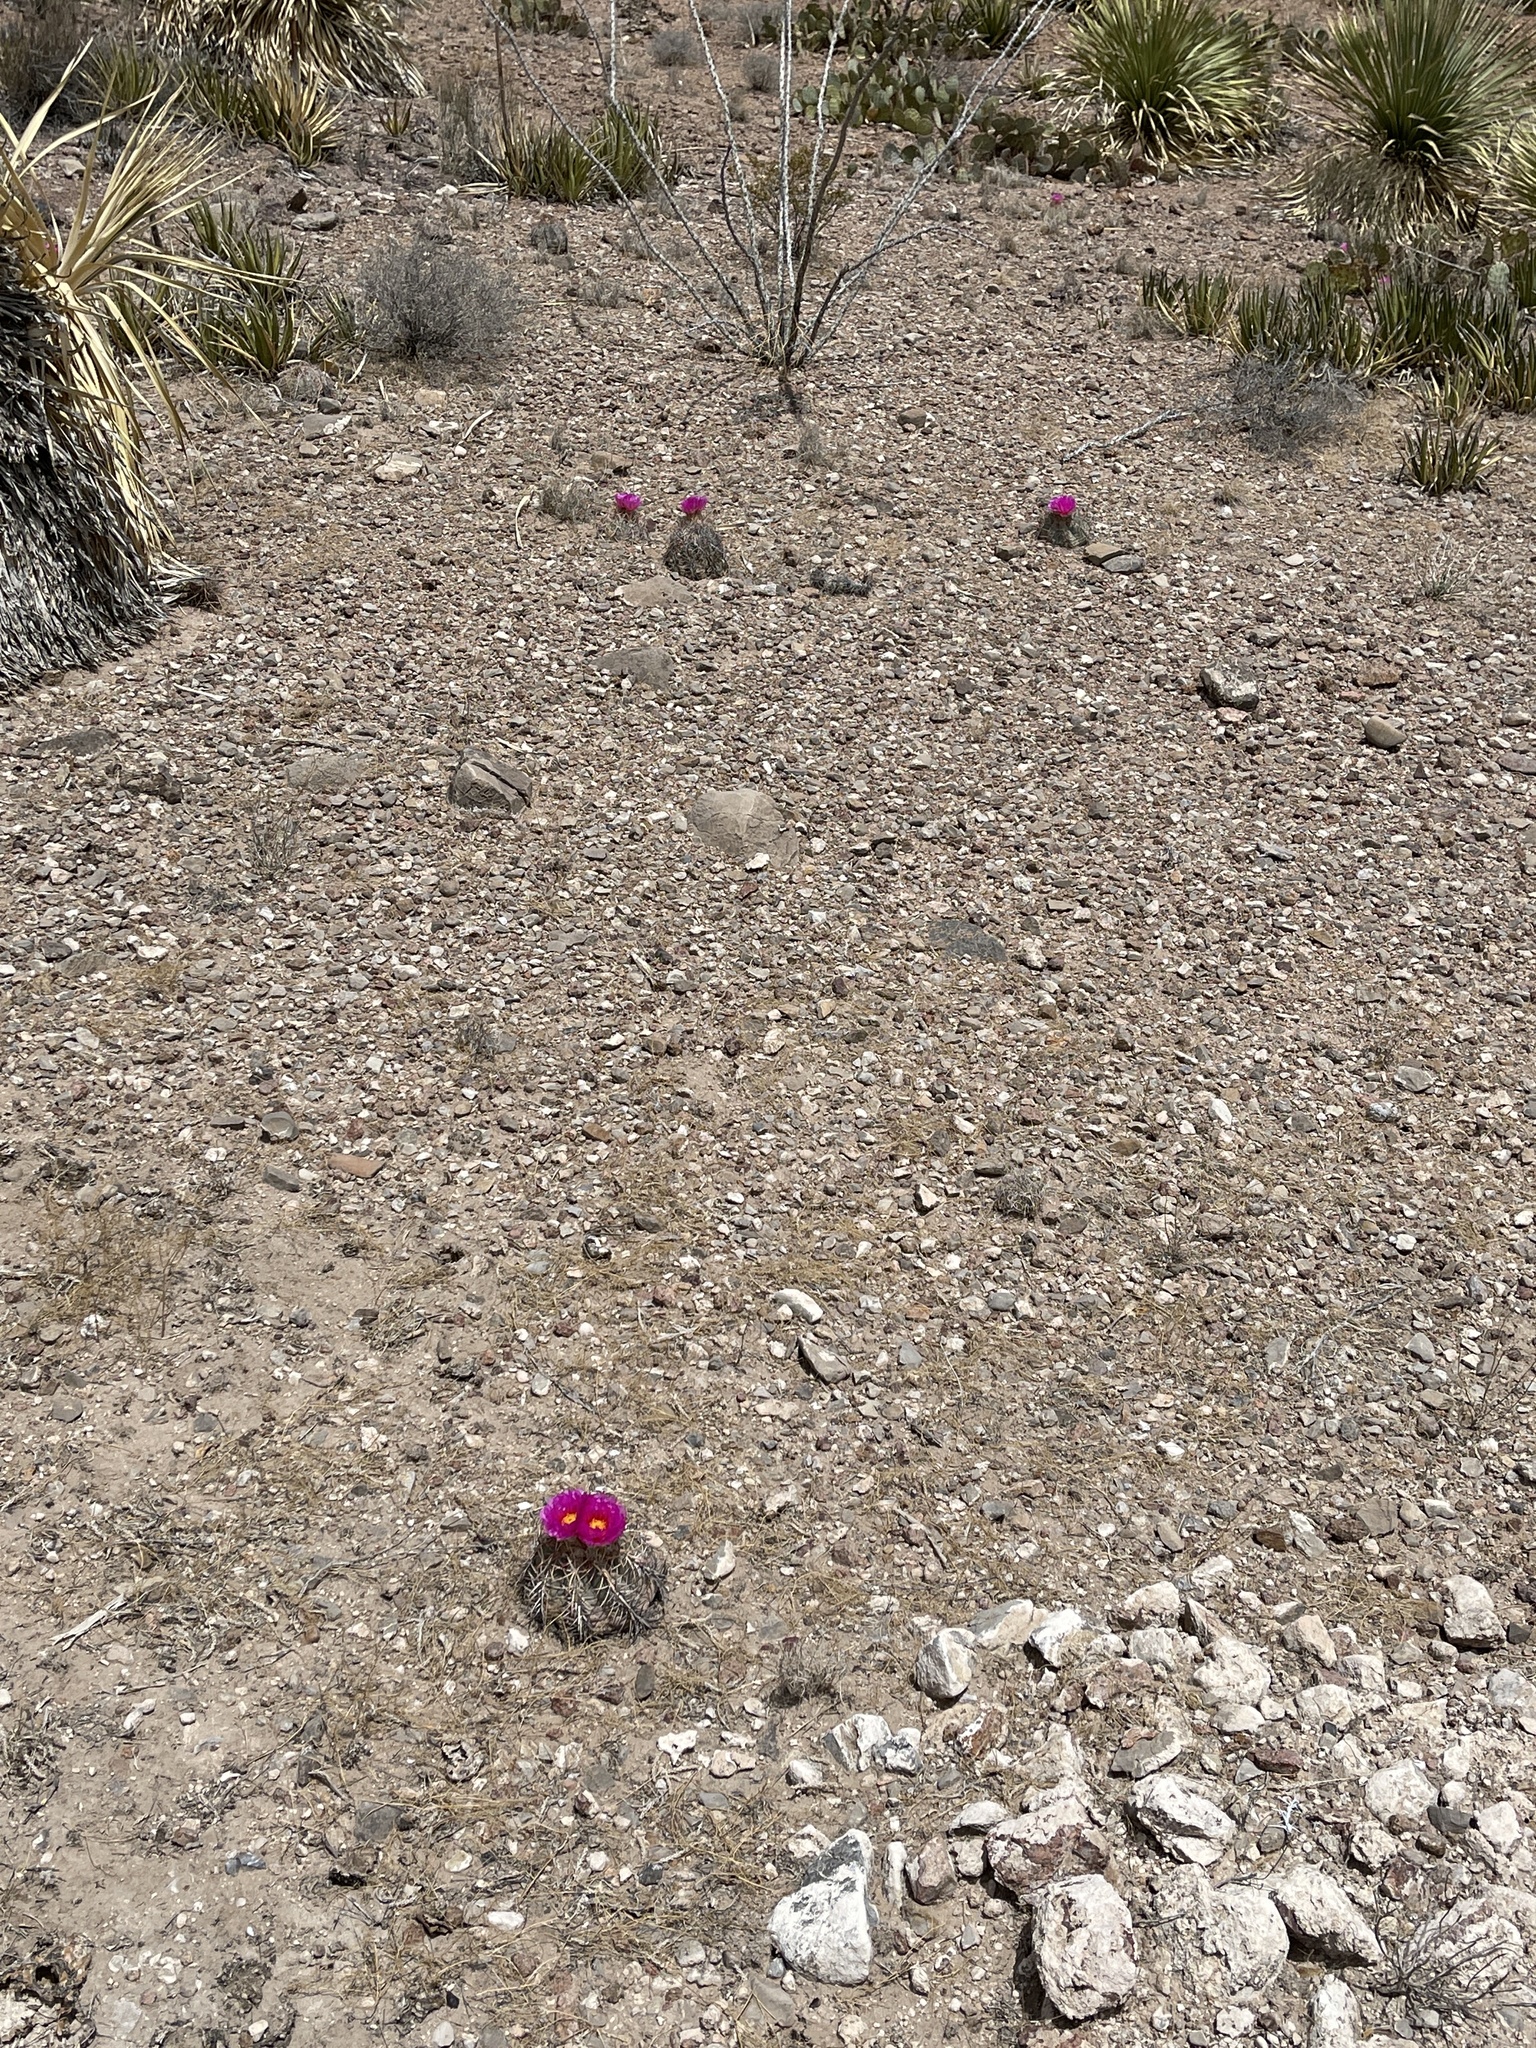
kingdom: Plantae
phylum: Tracheophyta
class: Magnoliopsida
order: Caryophyllales
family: Cactaceae
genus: Echinocactus
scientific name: Echinocactus horizonthalonius
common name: Devilshead
